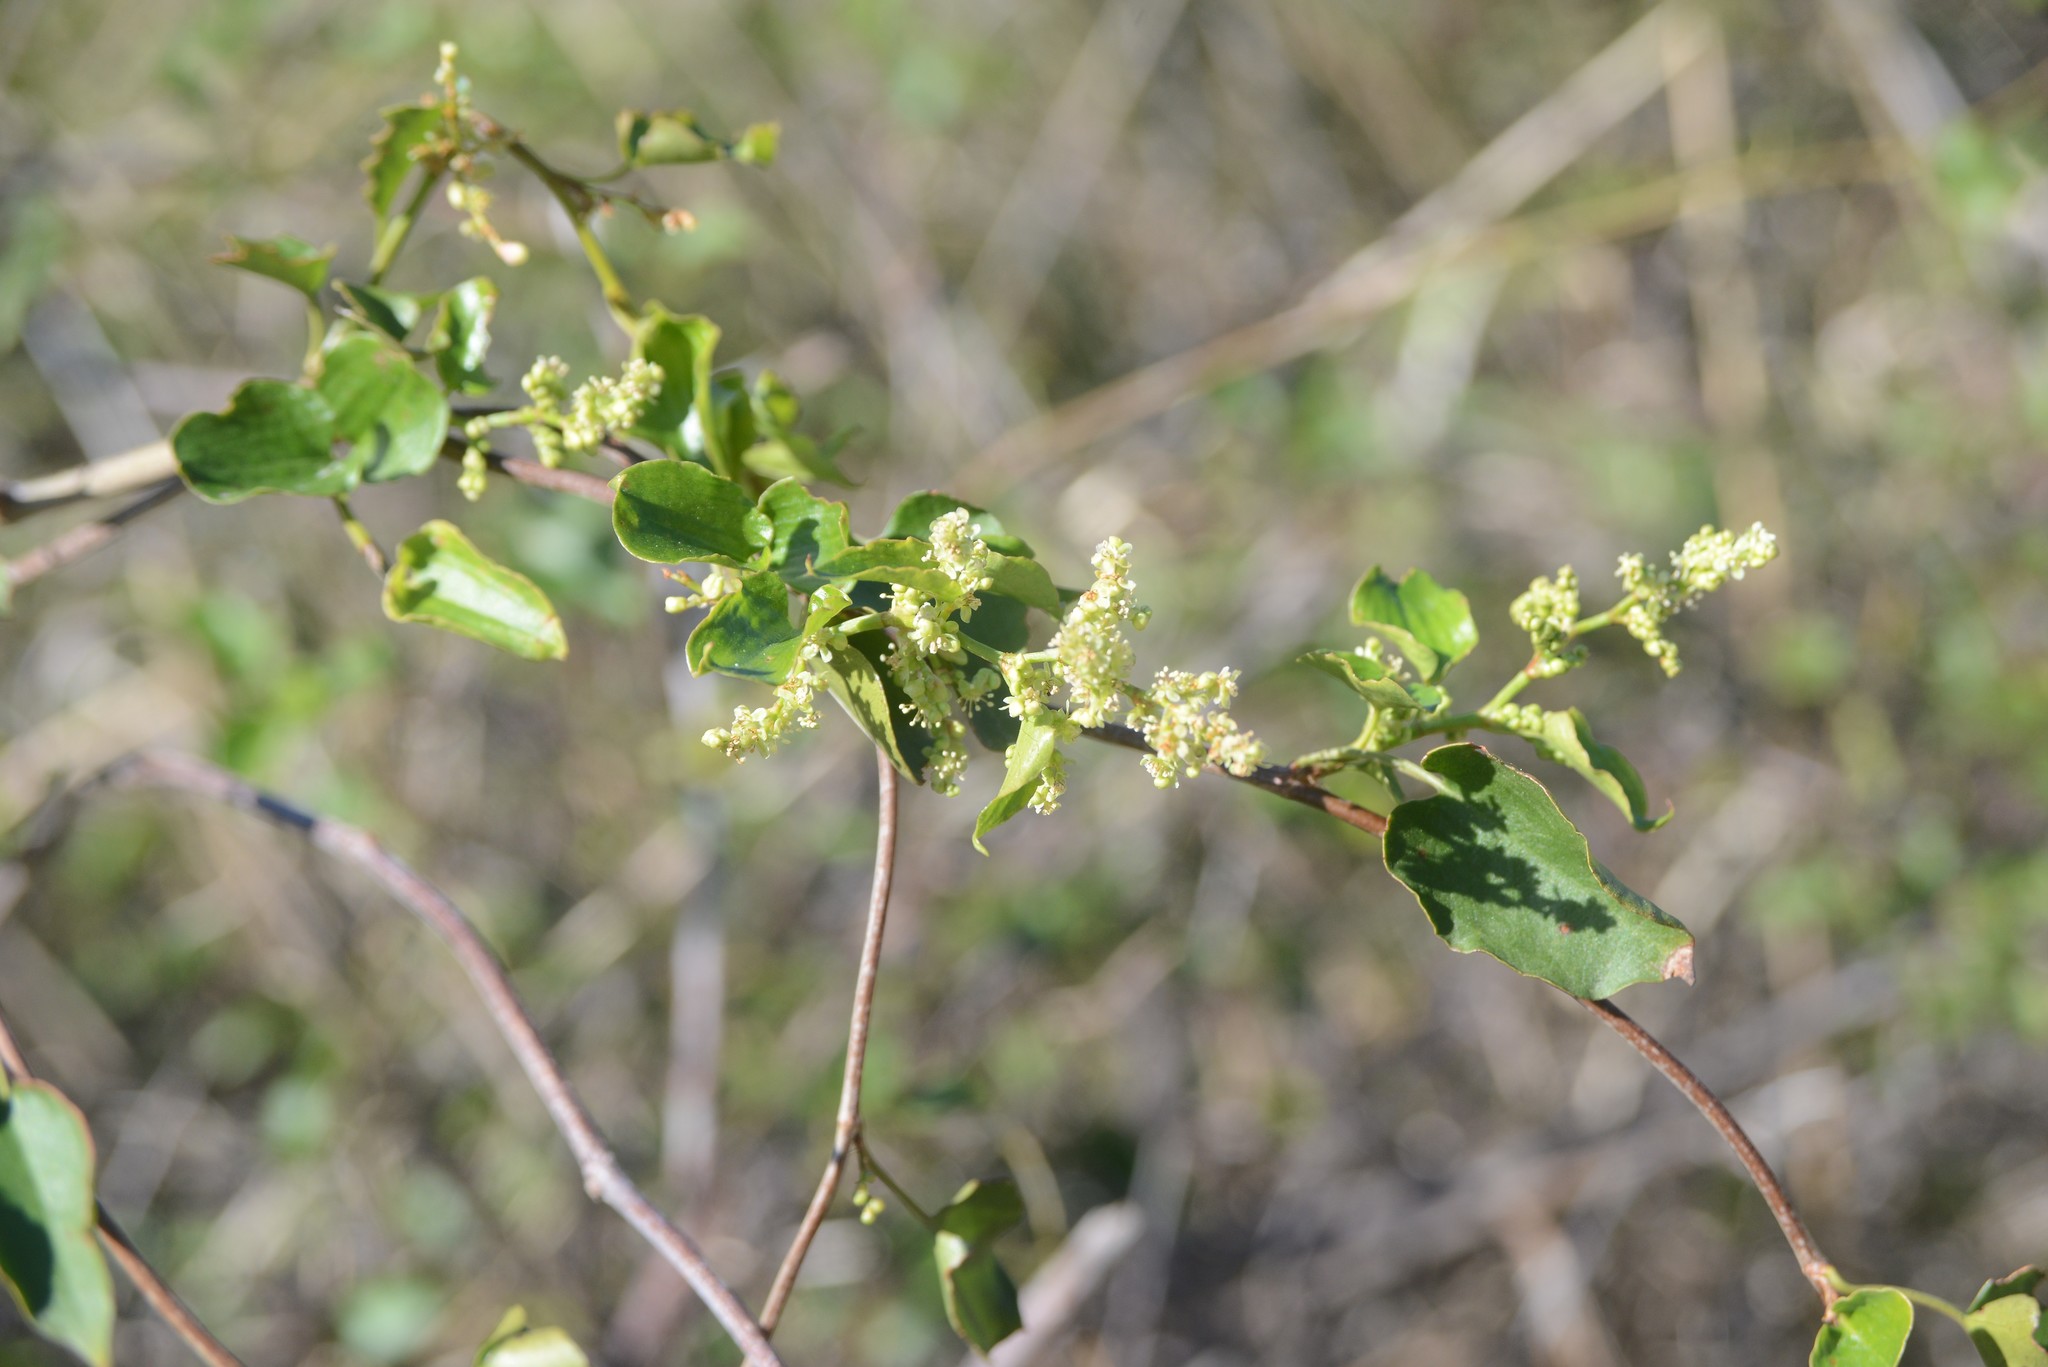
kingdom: Plantae
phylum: Tracheophyta
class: Magnoliopsida
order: Caryophyllales
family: Polygonaceae
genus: Muehlenbeckia
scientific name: Muehlenbeckia australis
